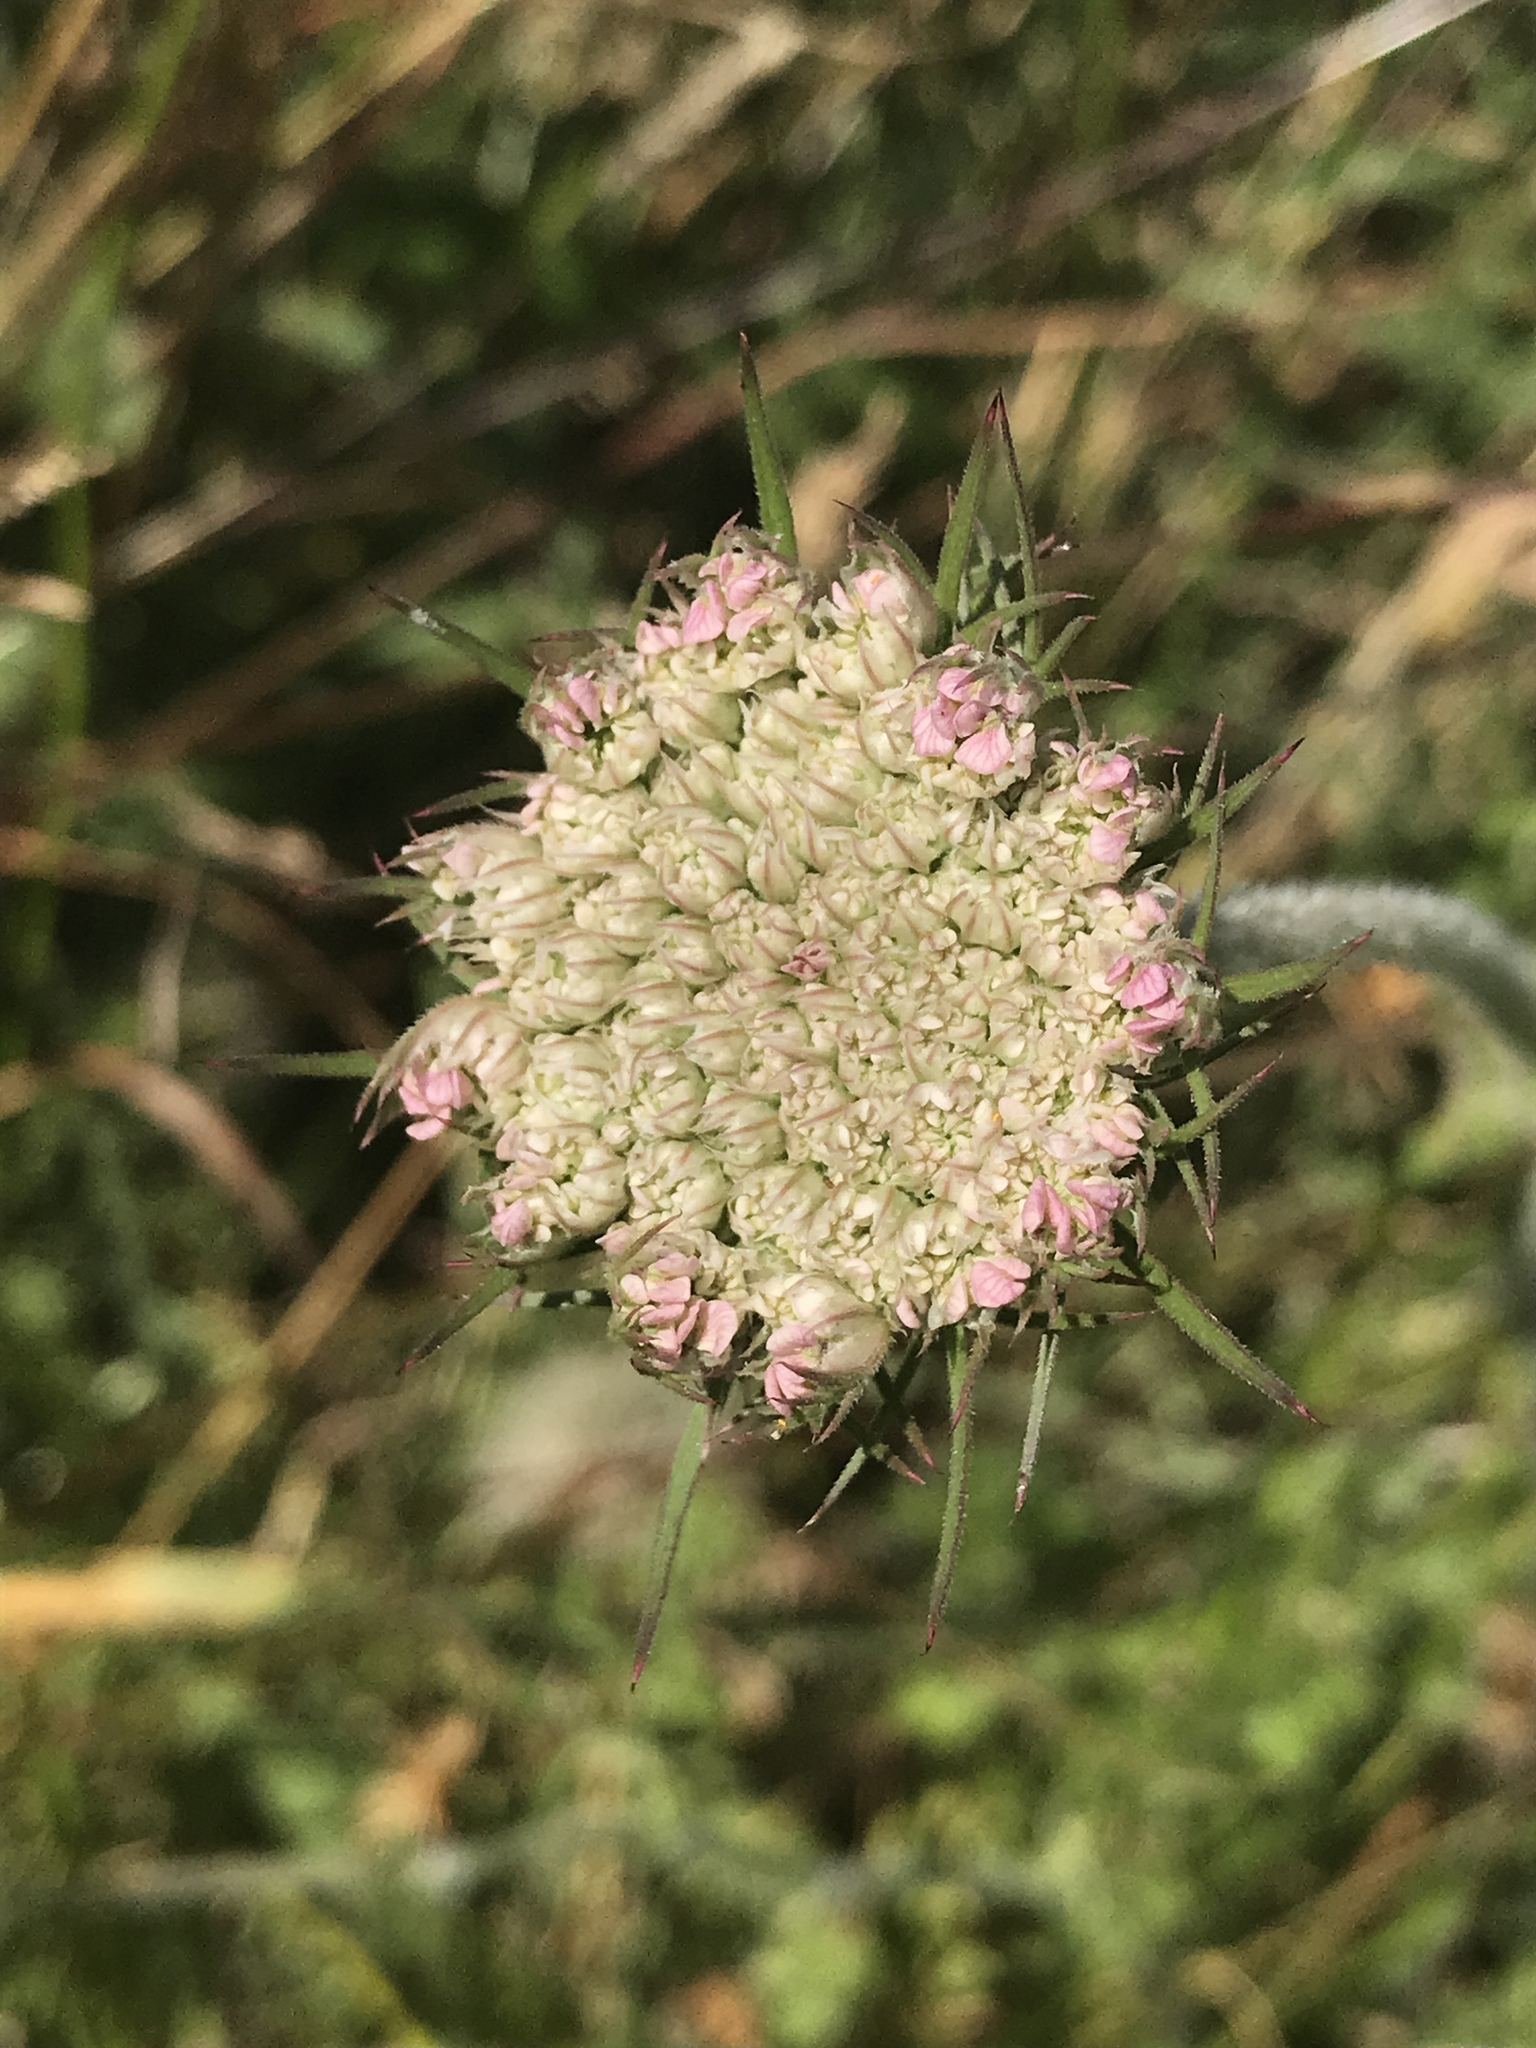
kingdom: Plantae
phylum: Tracheophyta
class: Magnoliopsida
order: Apiales
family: Apiaceae
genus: Daucus
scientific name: Daucus carota
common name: Wild carrot
